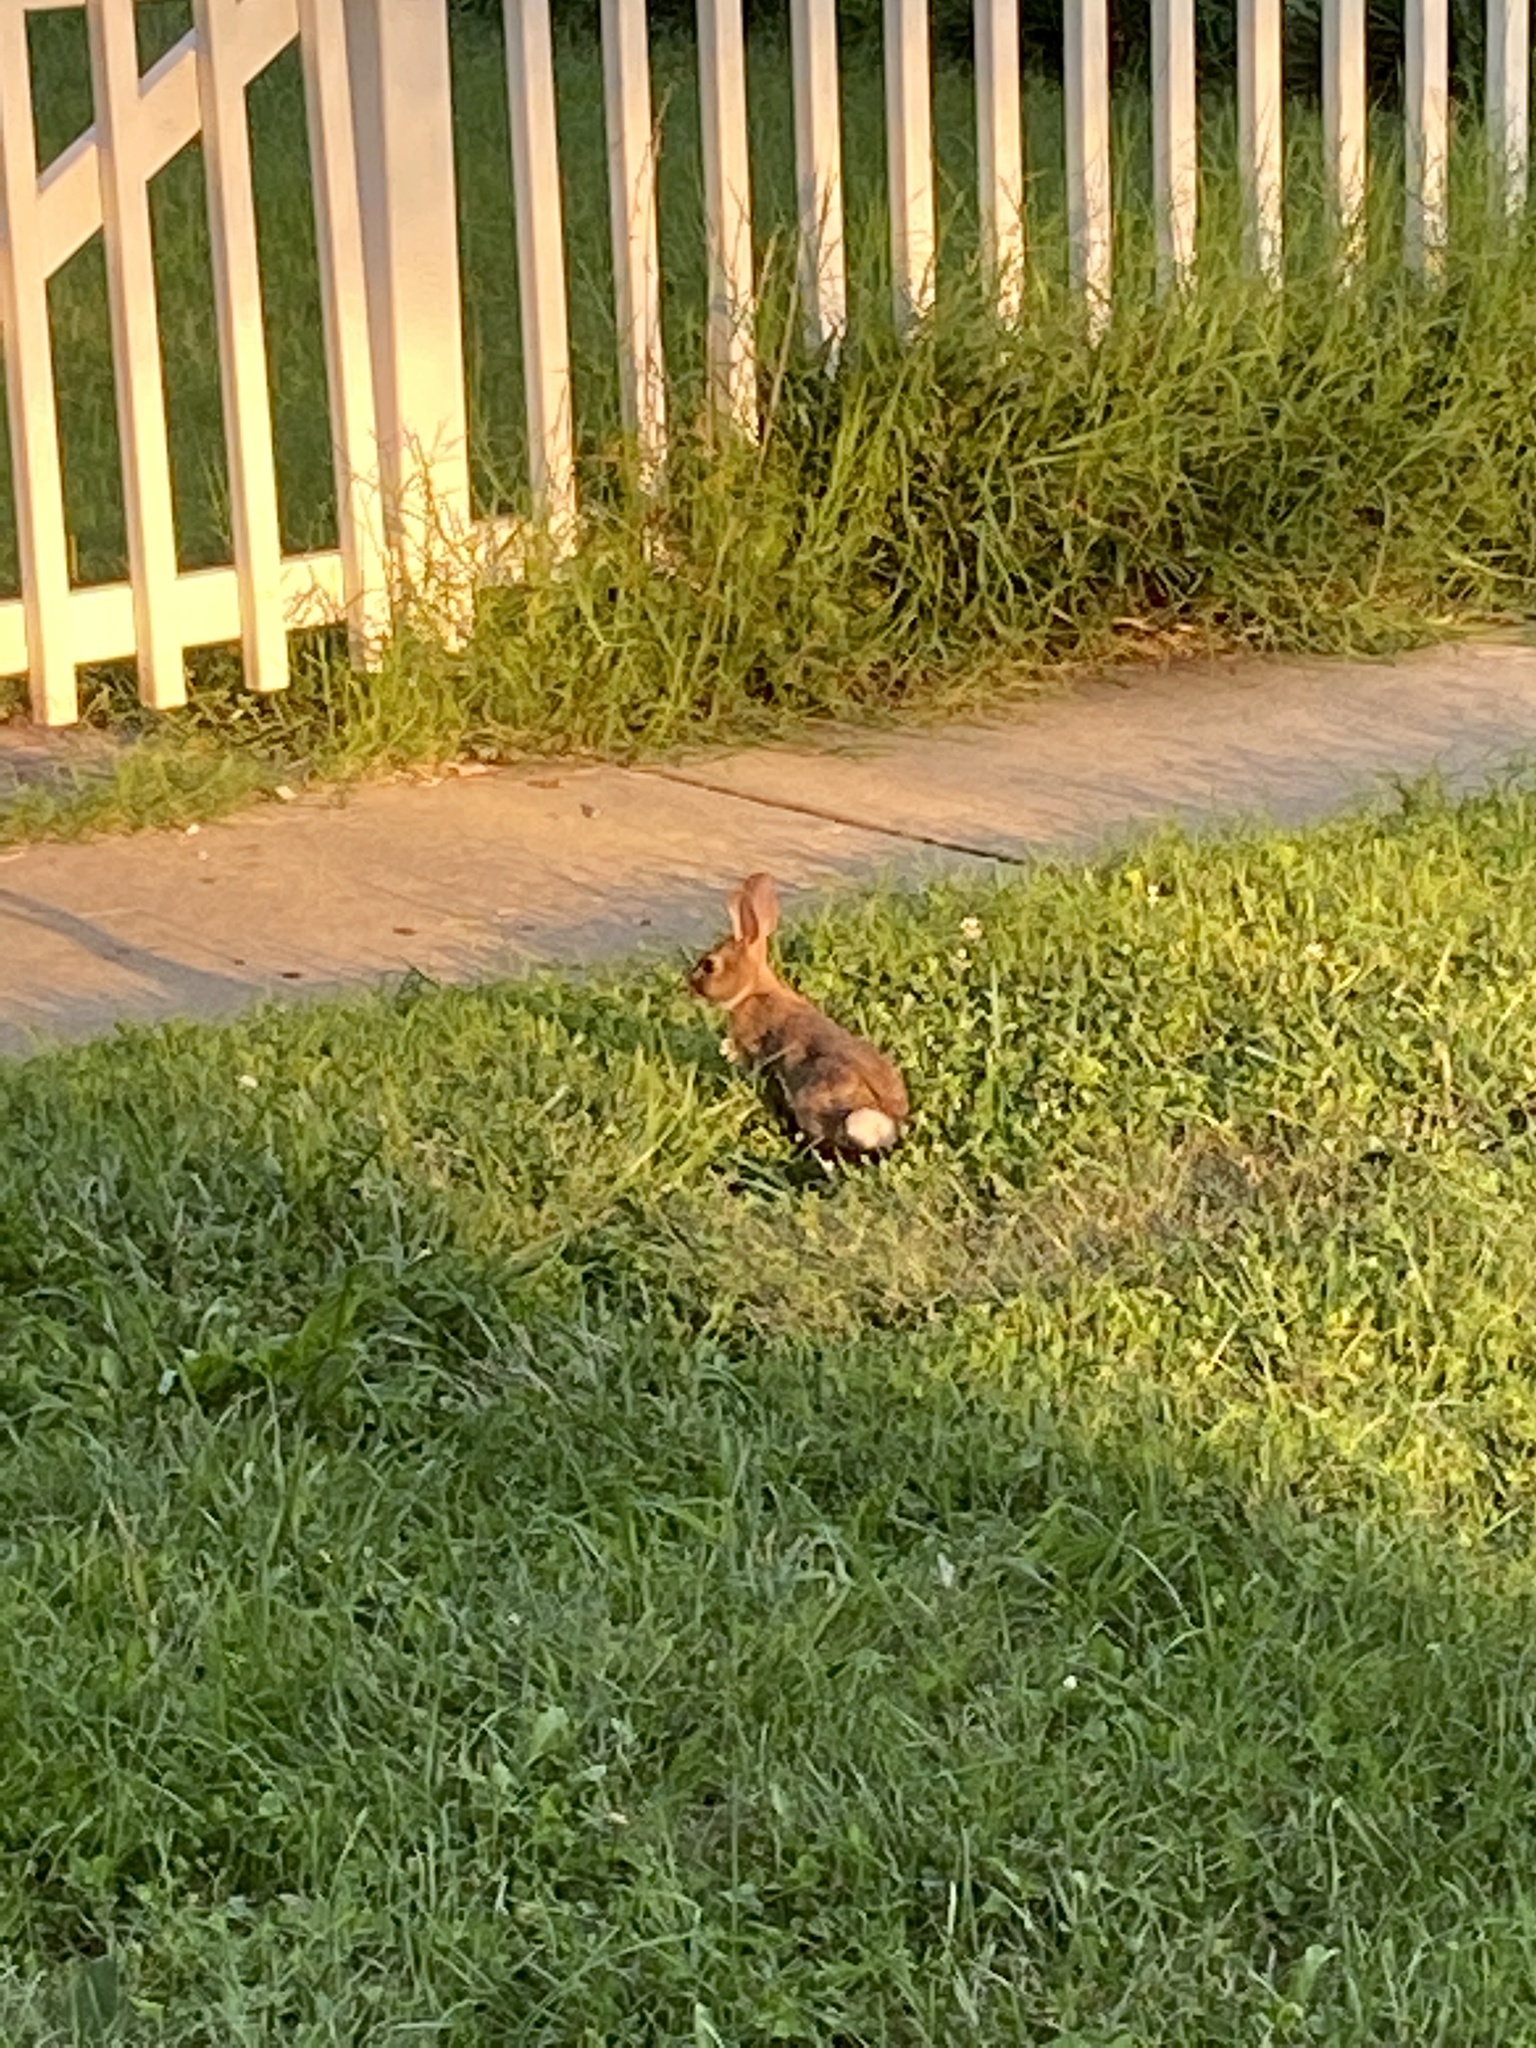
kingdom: Animalia
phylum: Chordata
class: Mammalia
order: Lagomorpha
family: Leporidae
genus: Sylvilagus
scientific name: Sylvilagus floridanus
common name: Eastern cottontail
